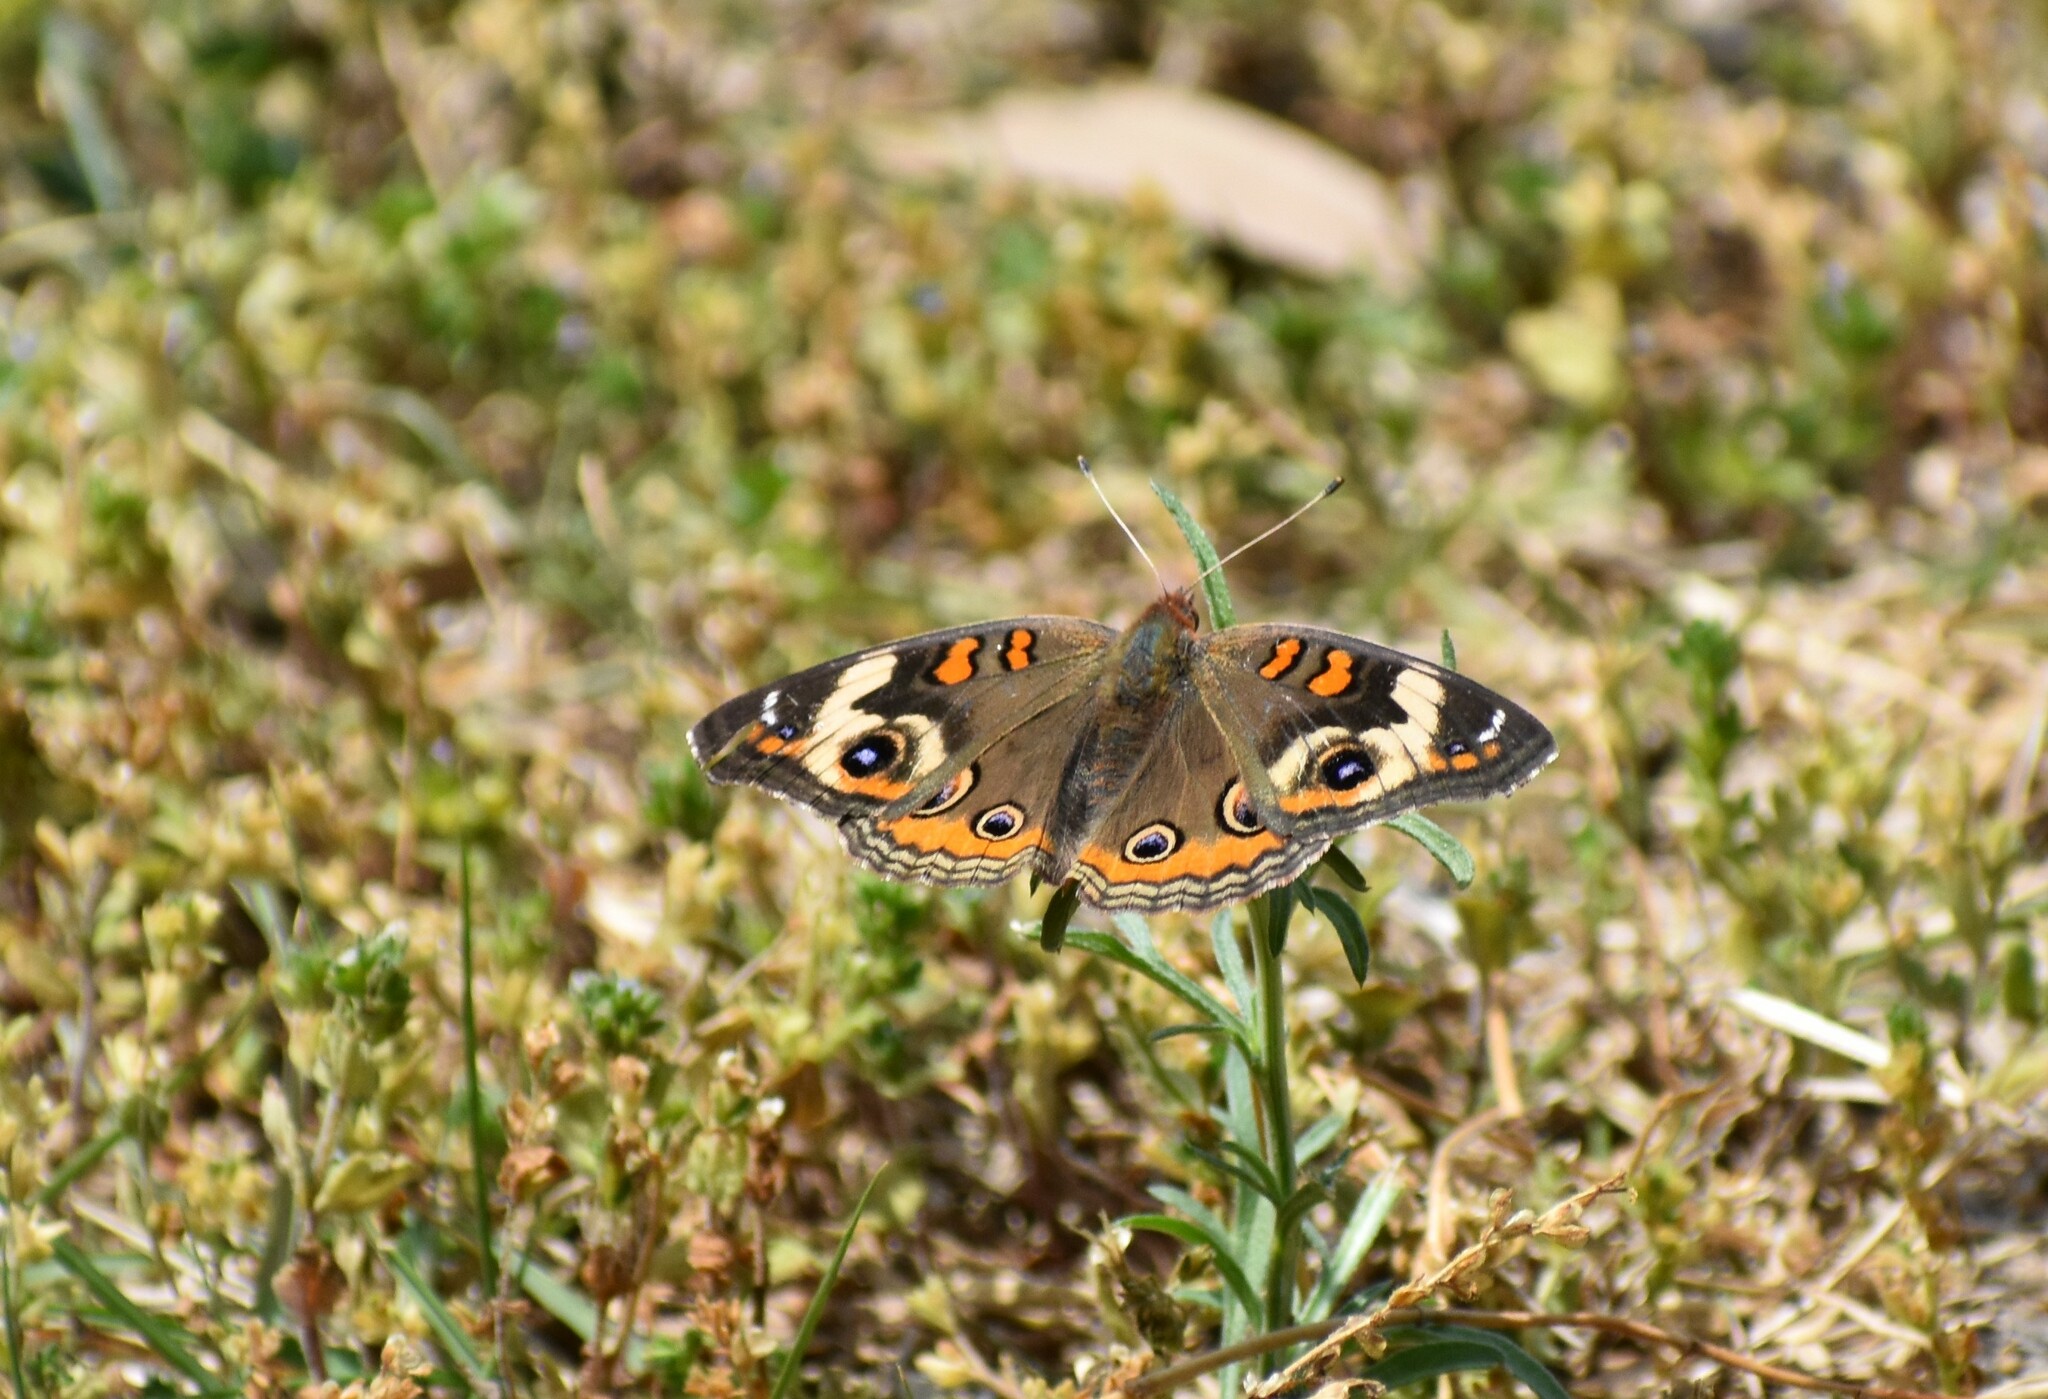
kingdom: Animalia
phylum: Arthropoda
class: Insecta
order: Lepidoptera
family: Nymphalidae
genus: Junonia
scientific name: Junonia coenia
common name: Common buckeye
